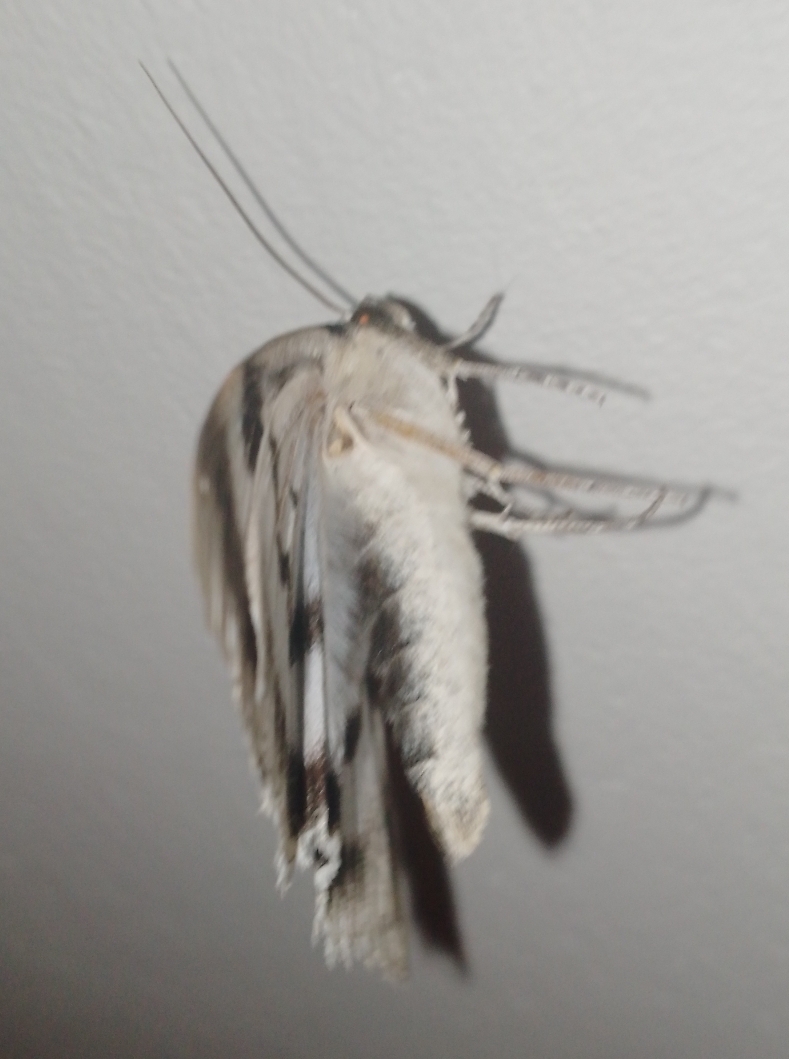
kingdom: Animalia
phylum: Arthropoda
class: Insecta
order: Lepidoptera
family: Erebidae
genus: Catocala
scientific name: Catocala fraxini
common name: Clifden nonpareil
